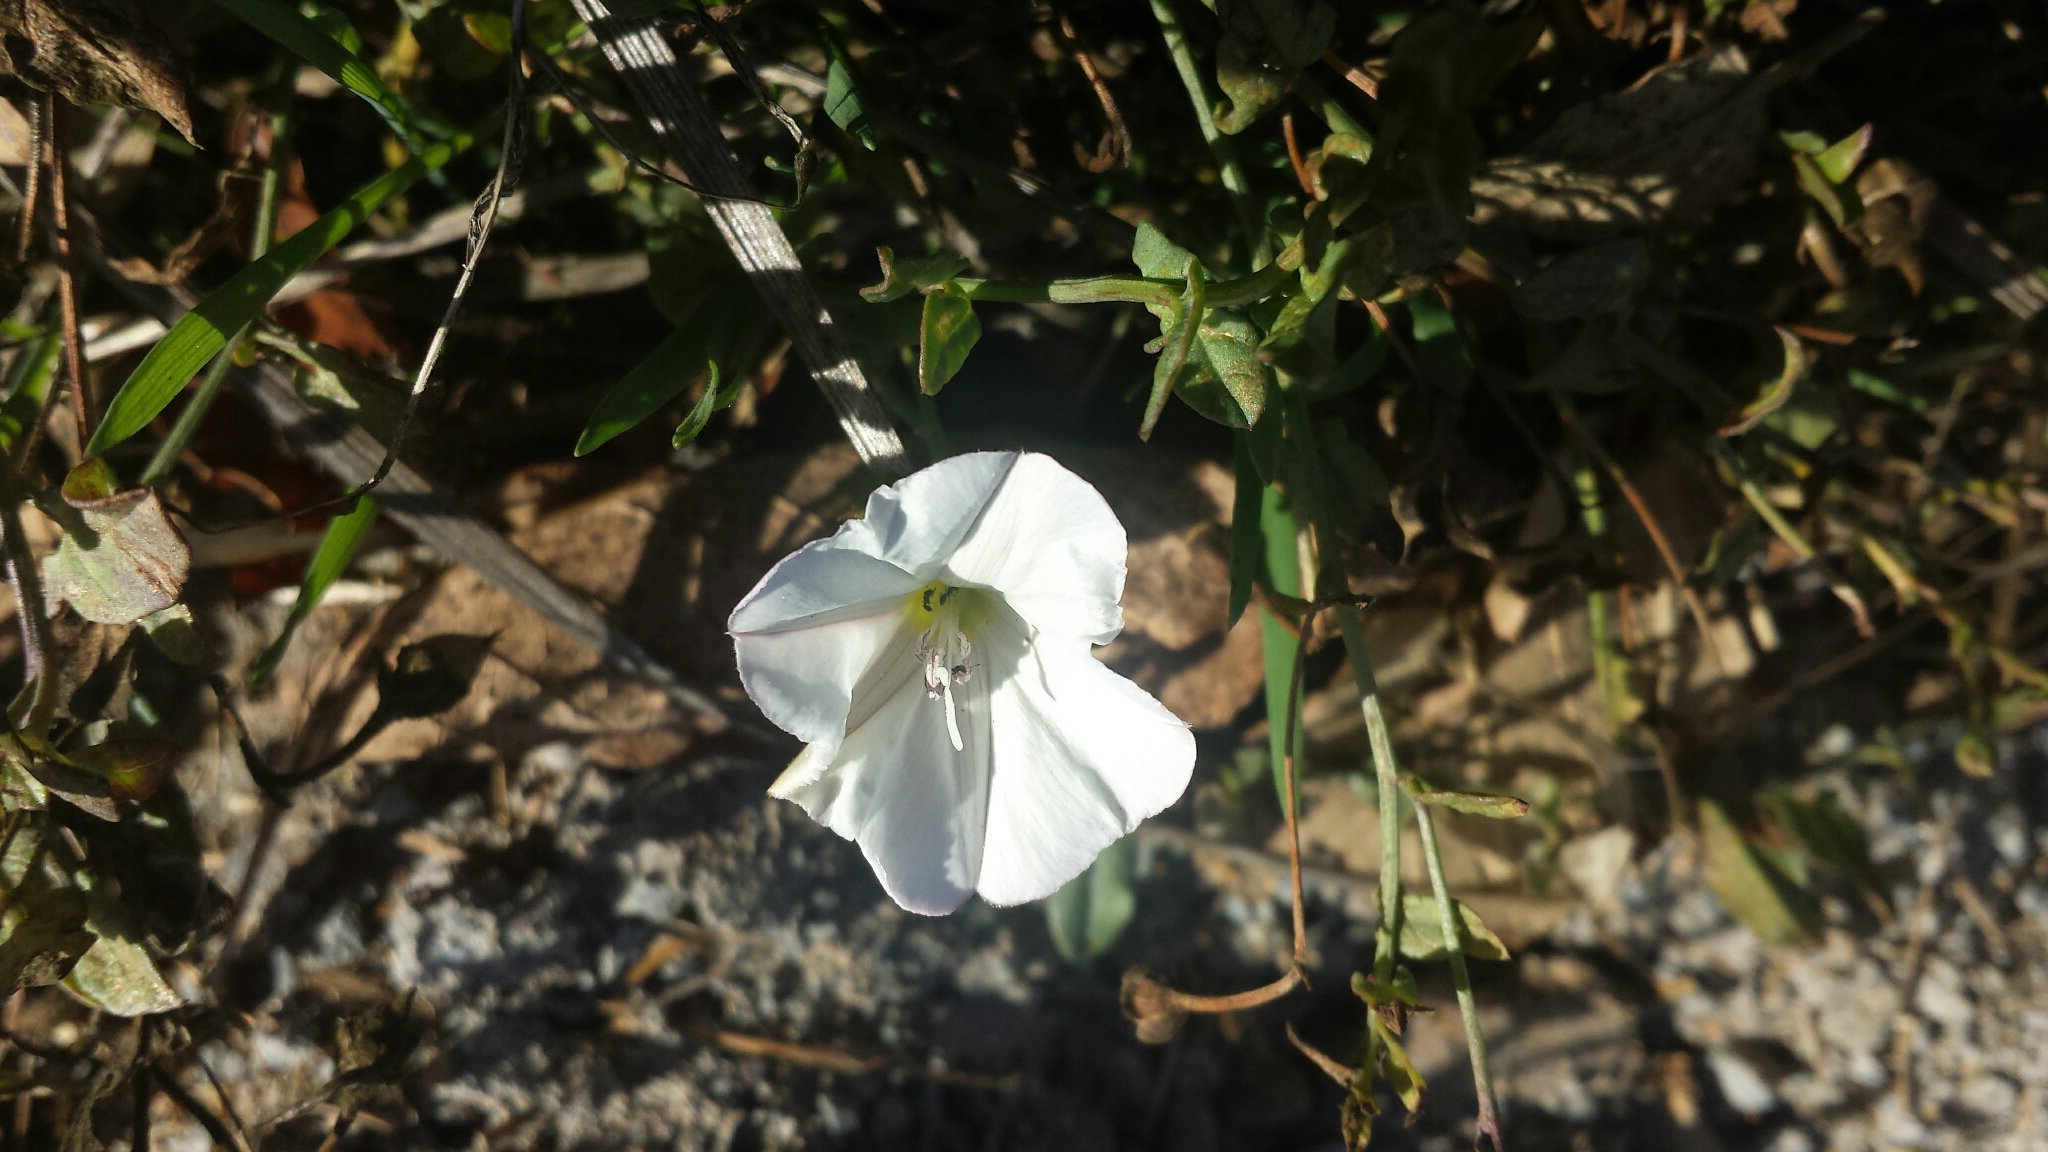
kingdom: Plantae
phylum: Tracheophyta
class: Magnoliopsida
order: Solanales
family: Convolvulaceae
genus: Convolvulus
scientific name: Convolvulus arvensis
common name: Field bindweed
